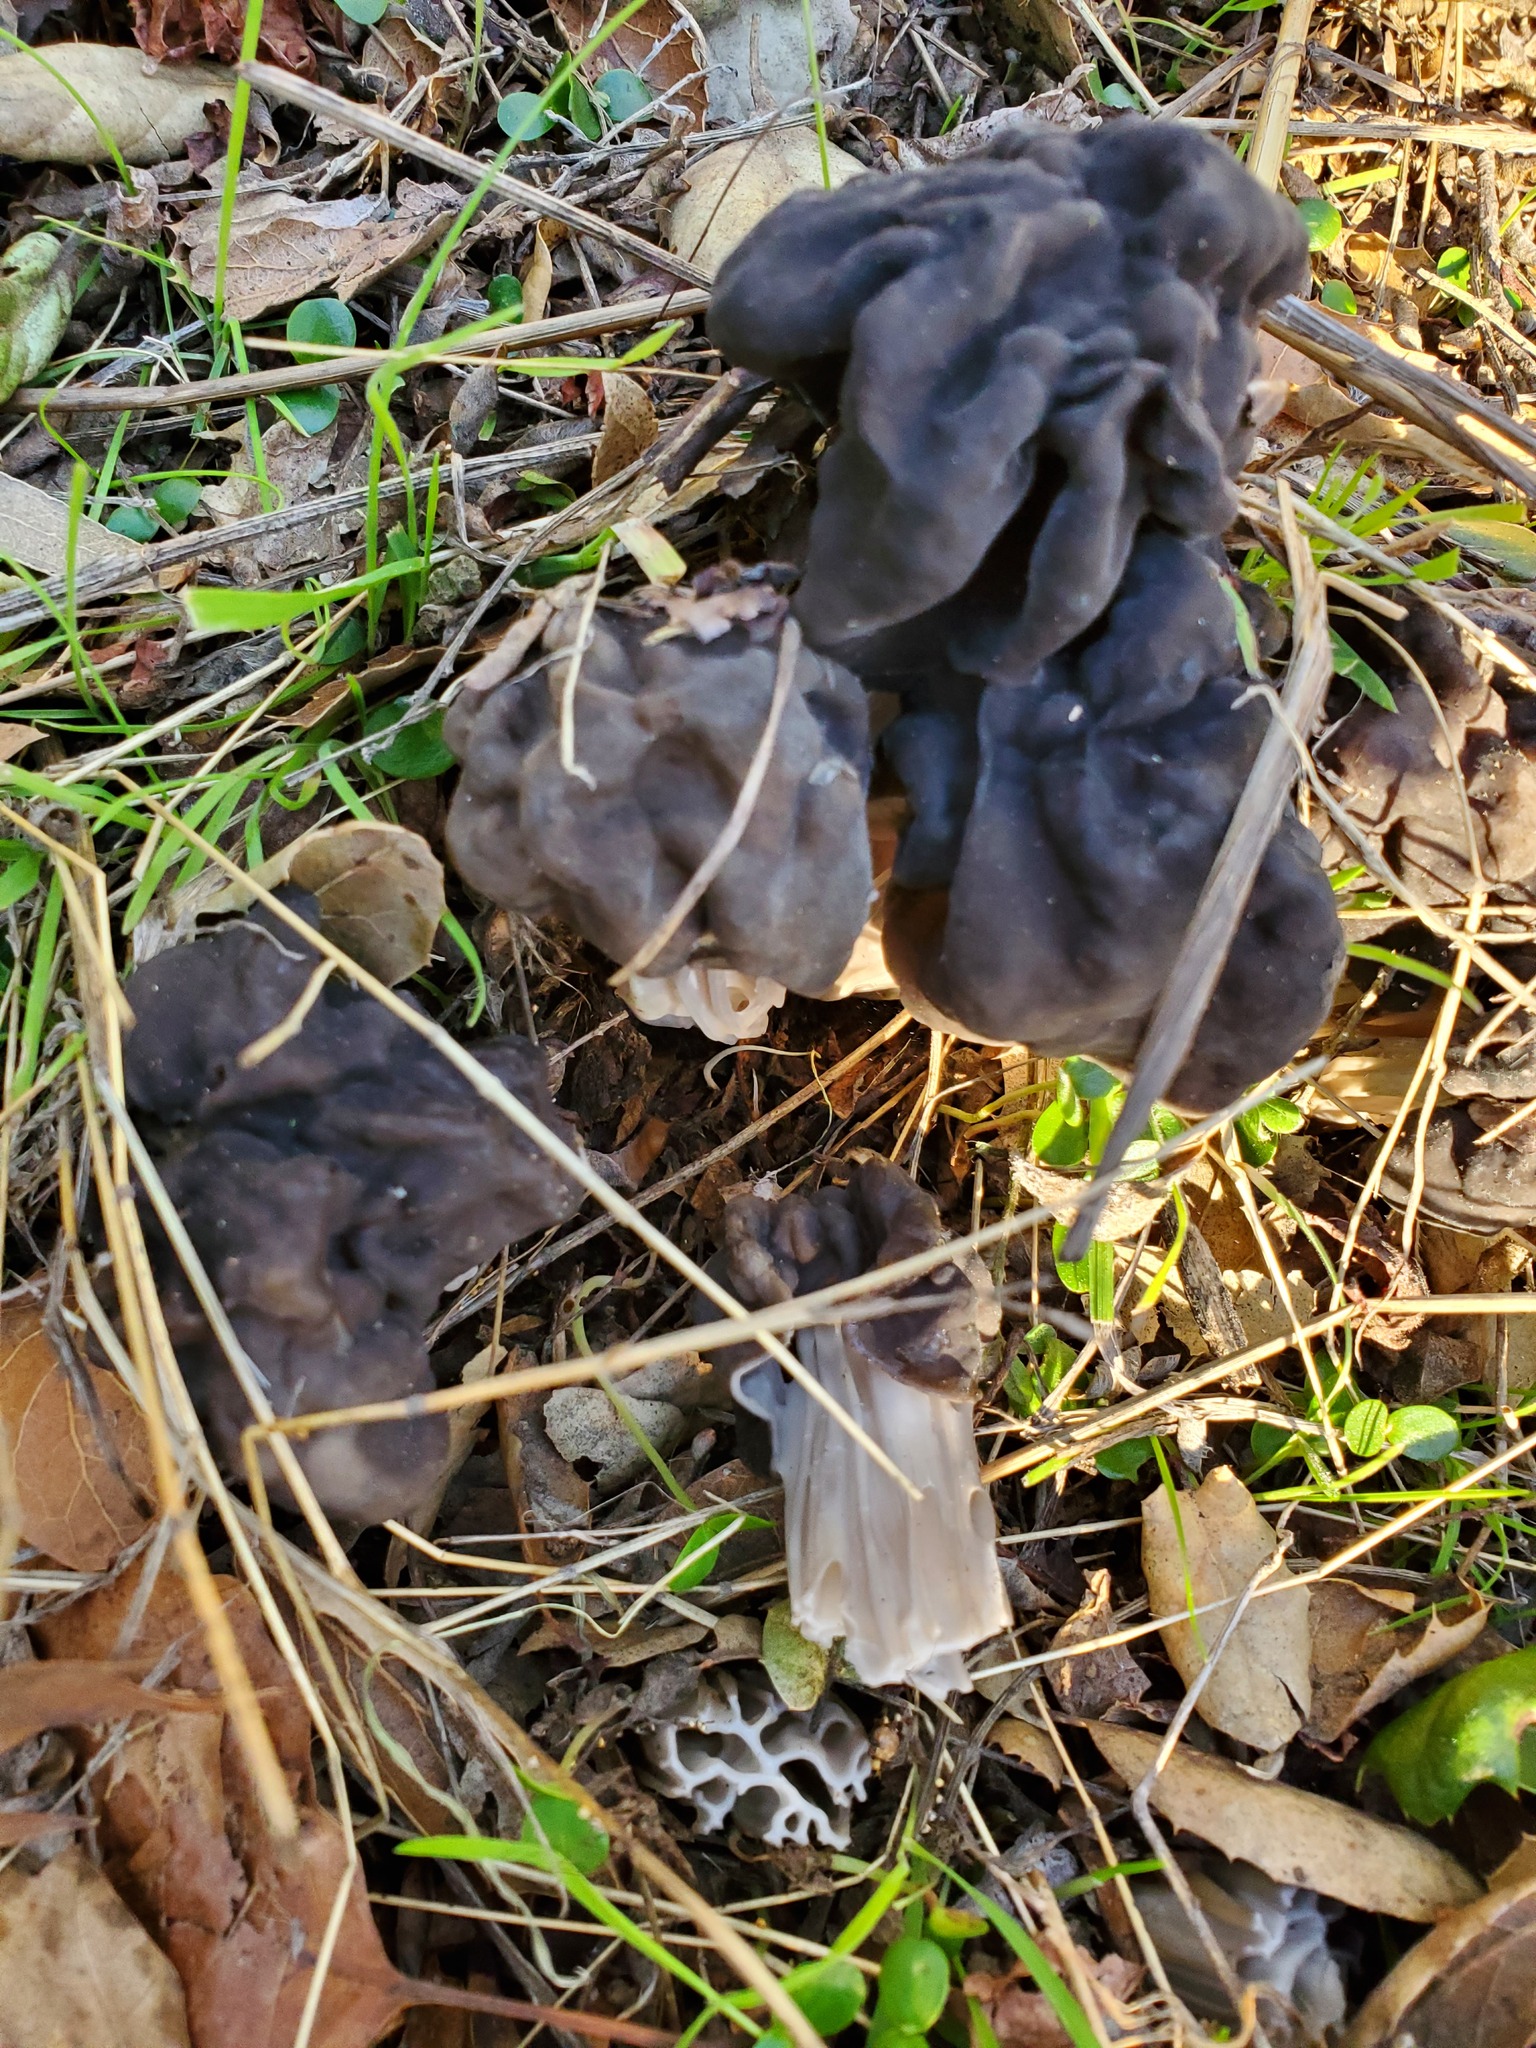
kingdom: Fungi
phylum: Ascomycota
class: Pezizomycetes
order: Pezizales
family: Helvellaceae
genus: Helvella
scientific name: Helvella dryophila
